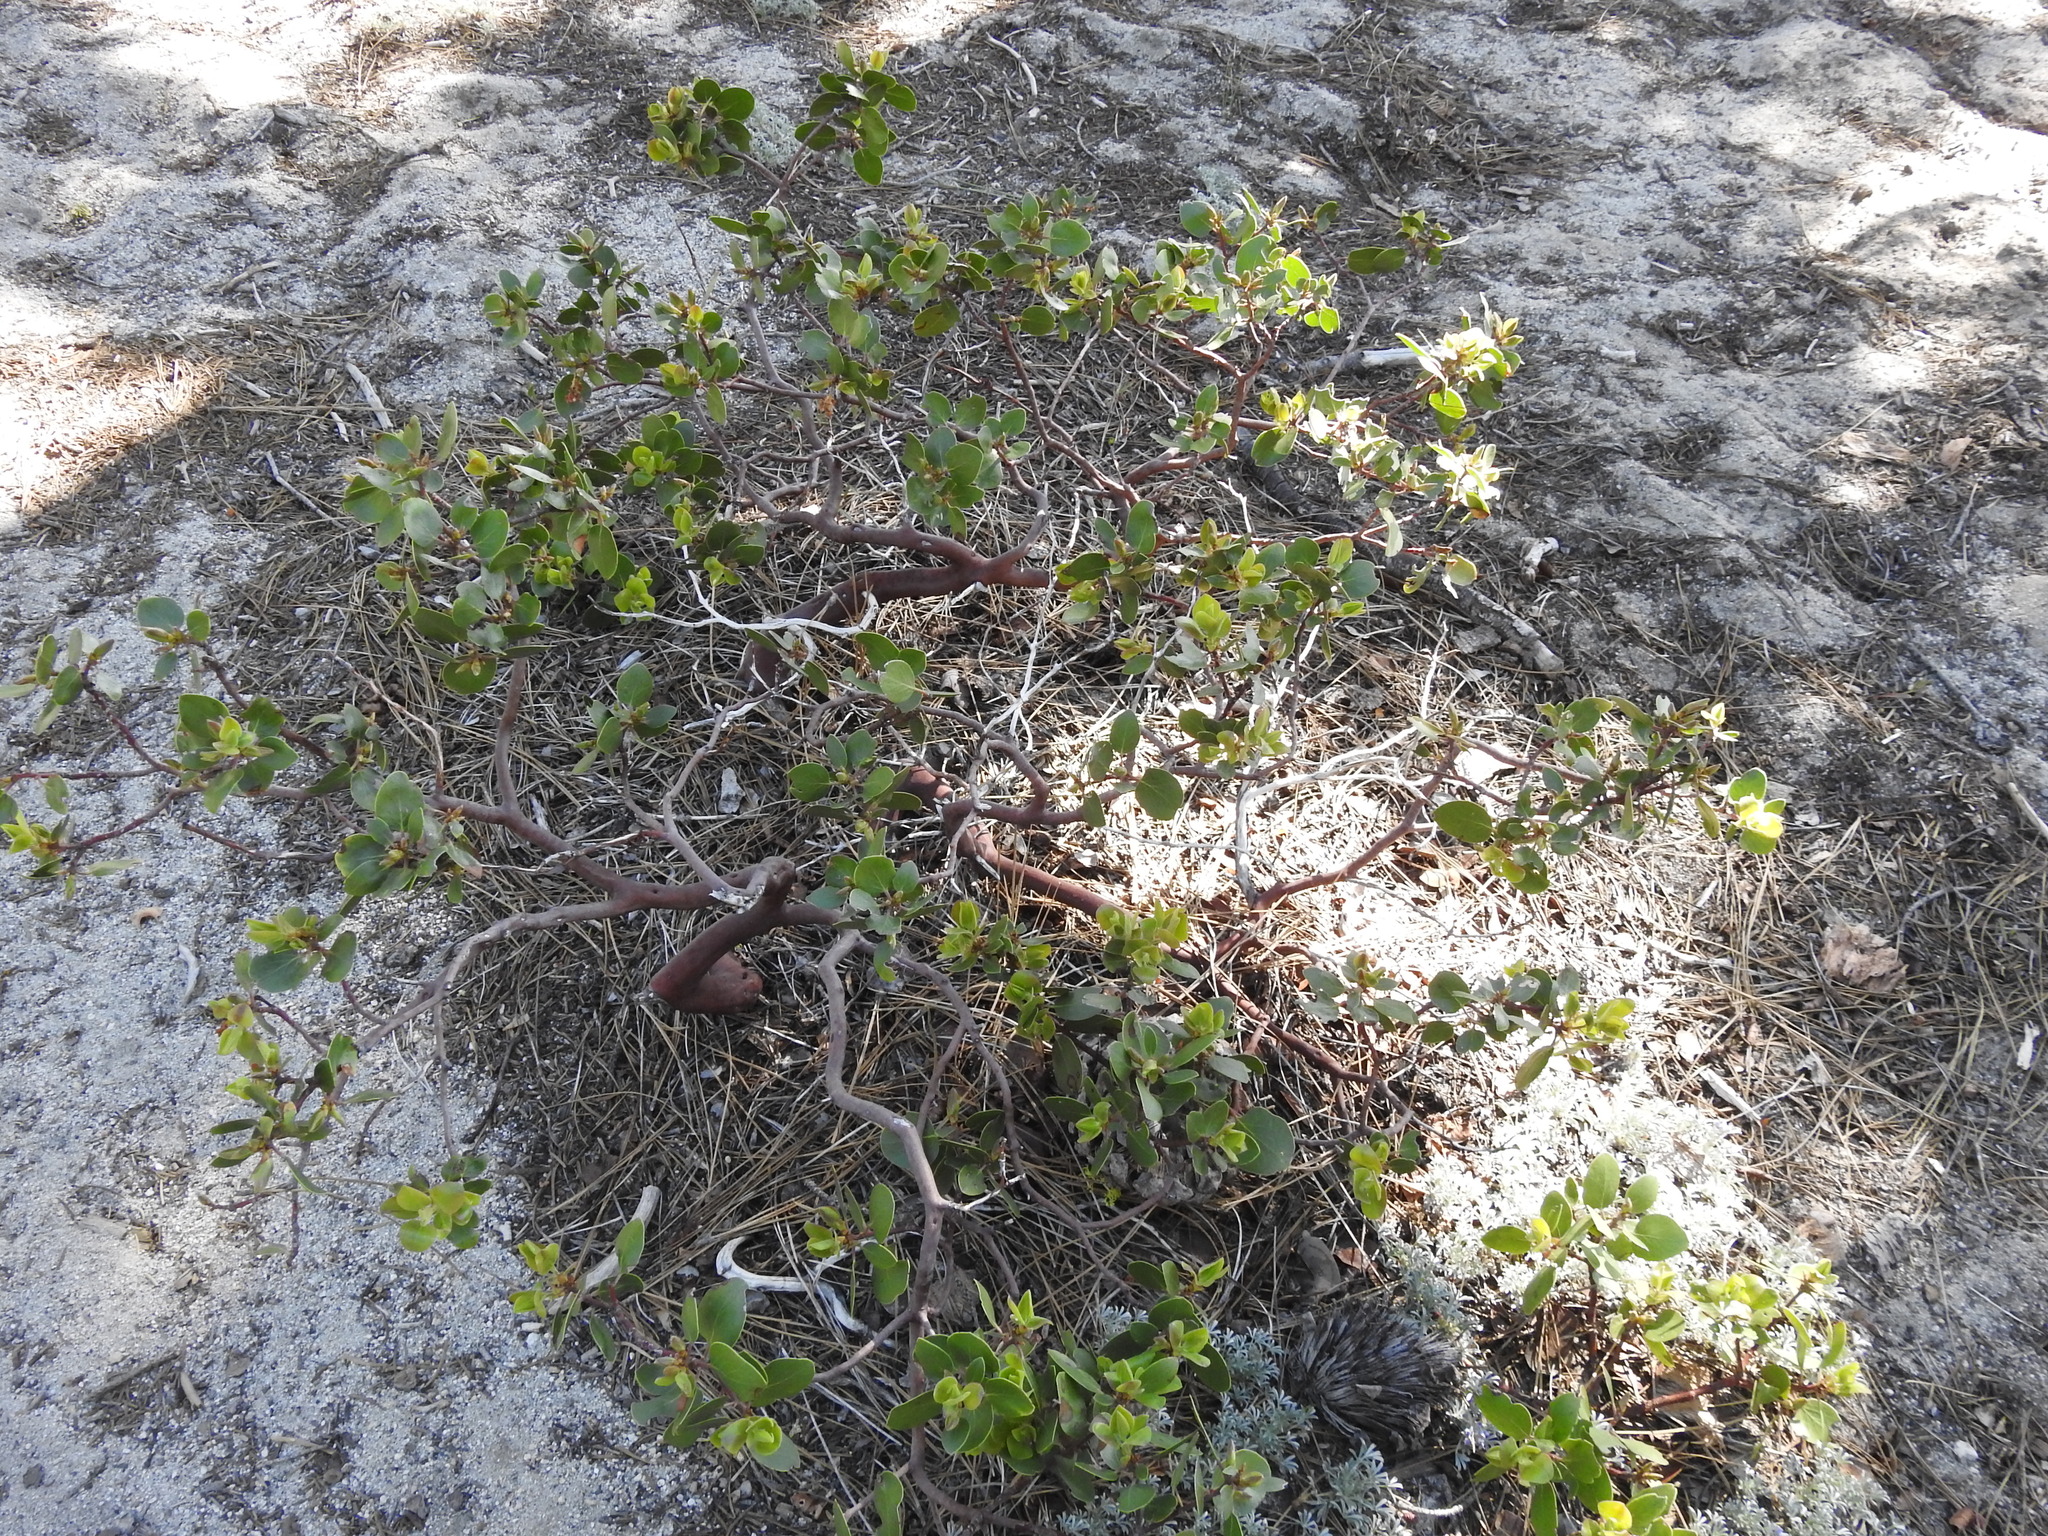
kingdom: Plantae
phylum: Tracheophyta
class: Magnoliopsida
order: Ericales
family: Ericaceae
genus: Arctostaphylos
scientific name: Arctostaphylos patula
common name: Green-leaf manzanita
